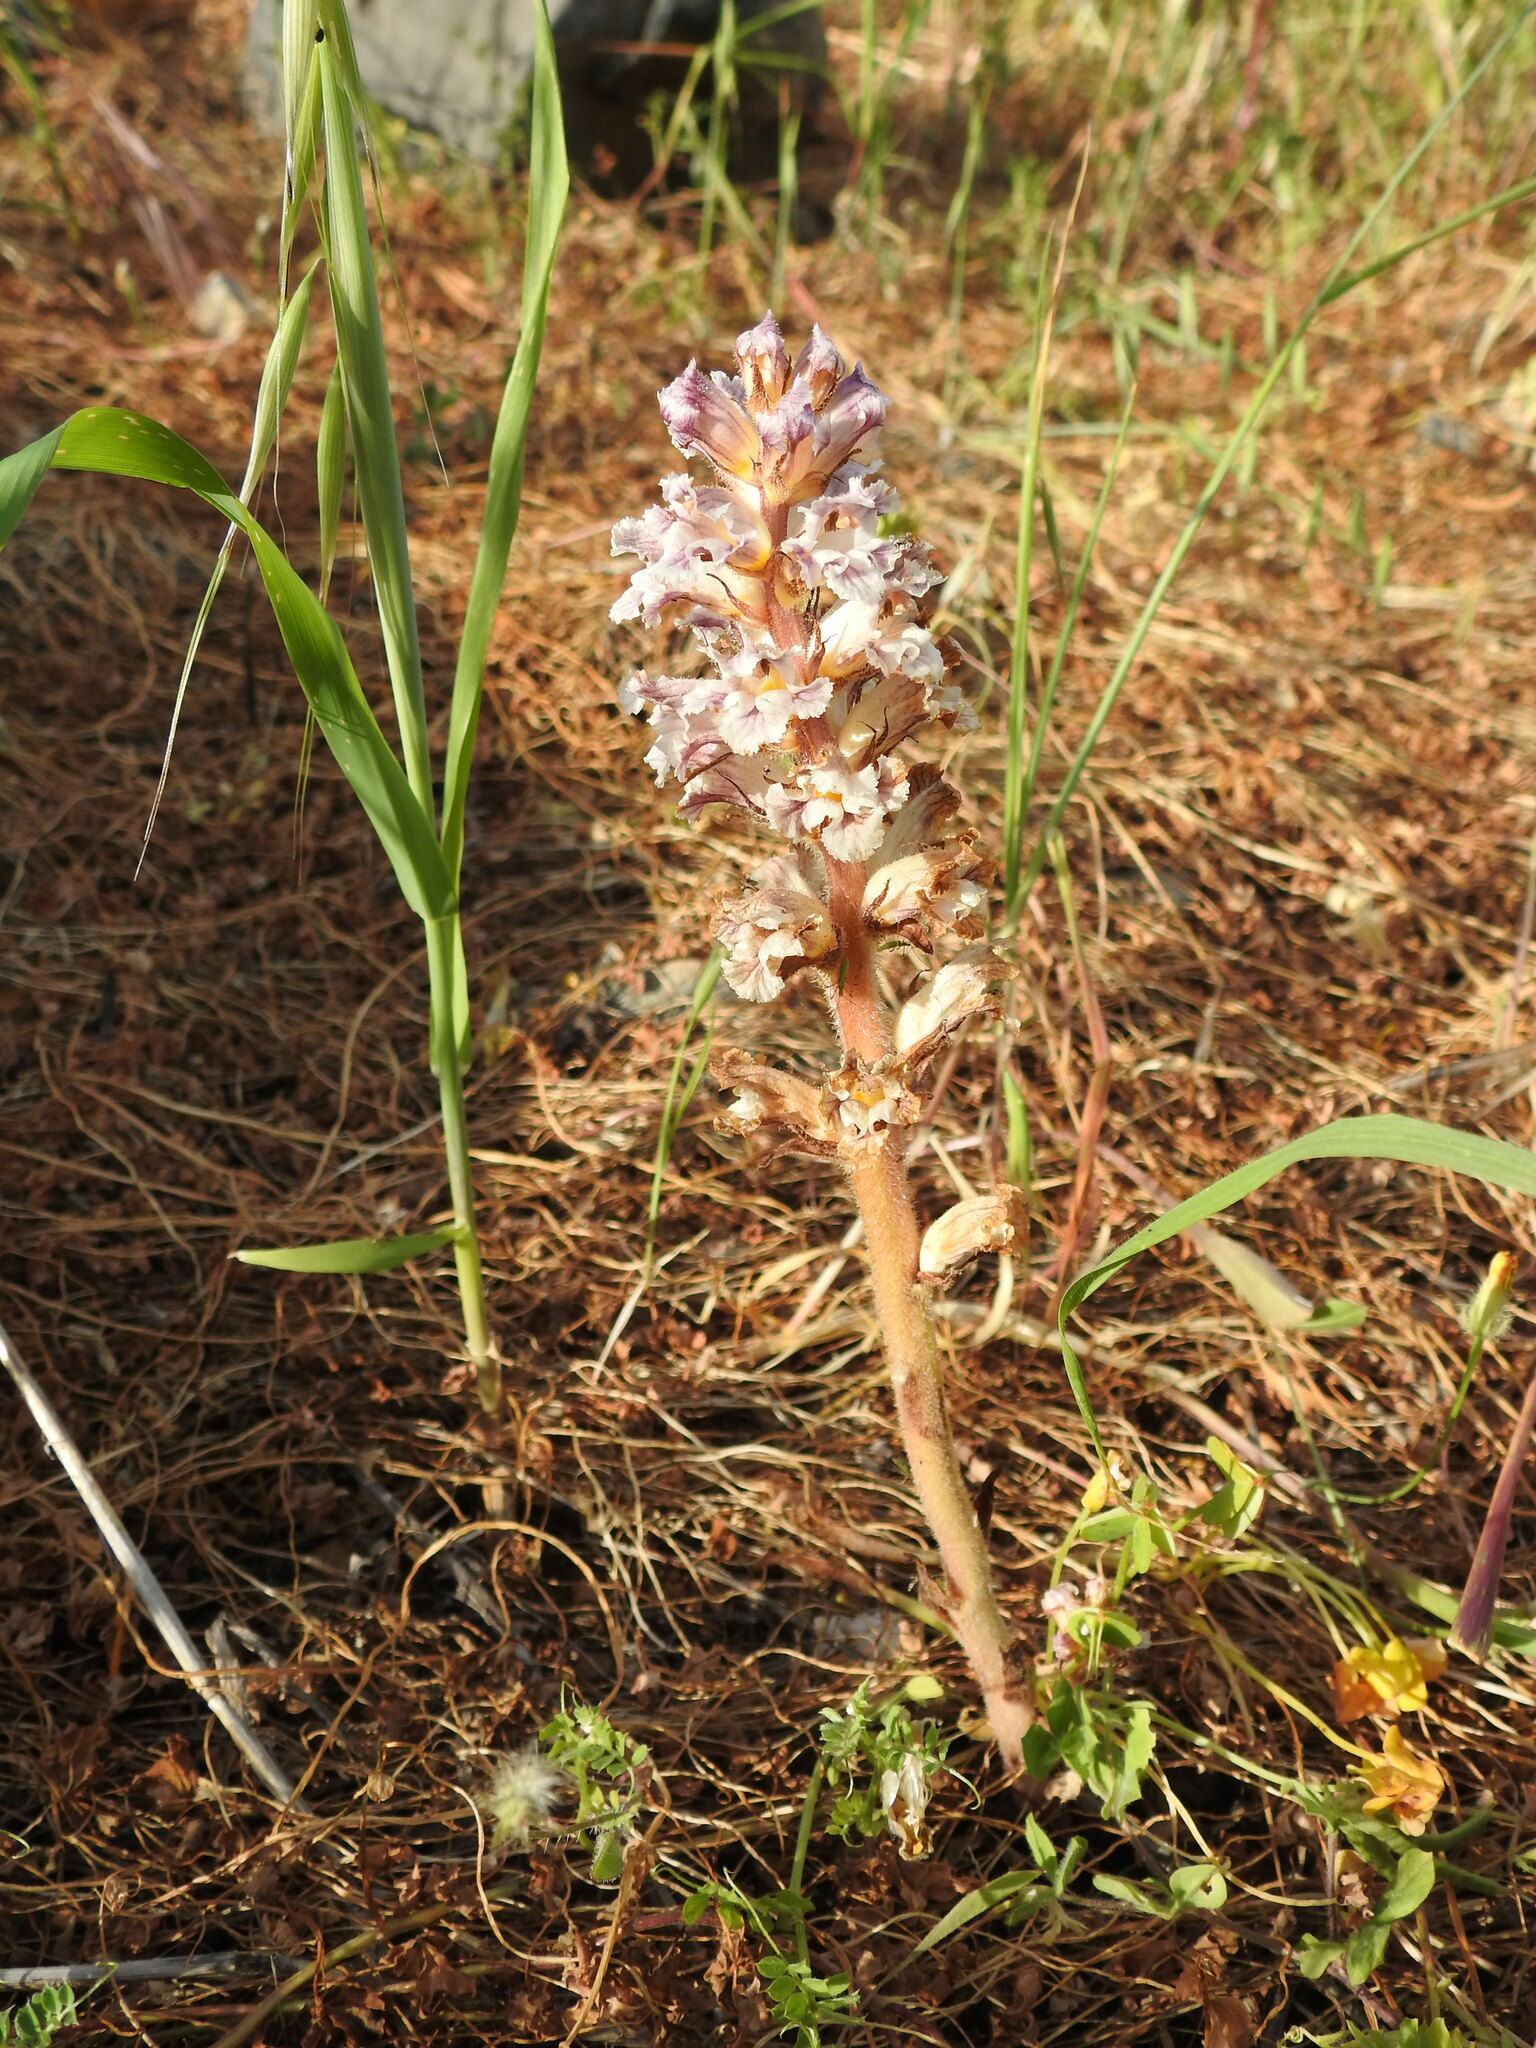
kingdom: Plantae
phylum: Tracheophyta
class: Magnoliopsida
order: Lamiales
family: Orobanchaceae
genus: Orobanche
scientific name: Orobanche crenata
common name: Bean broomrape
